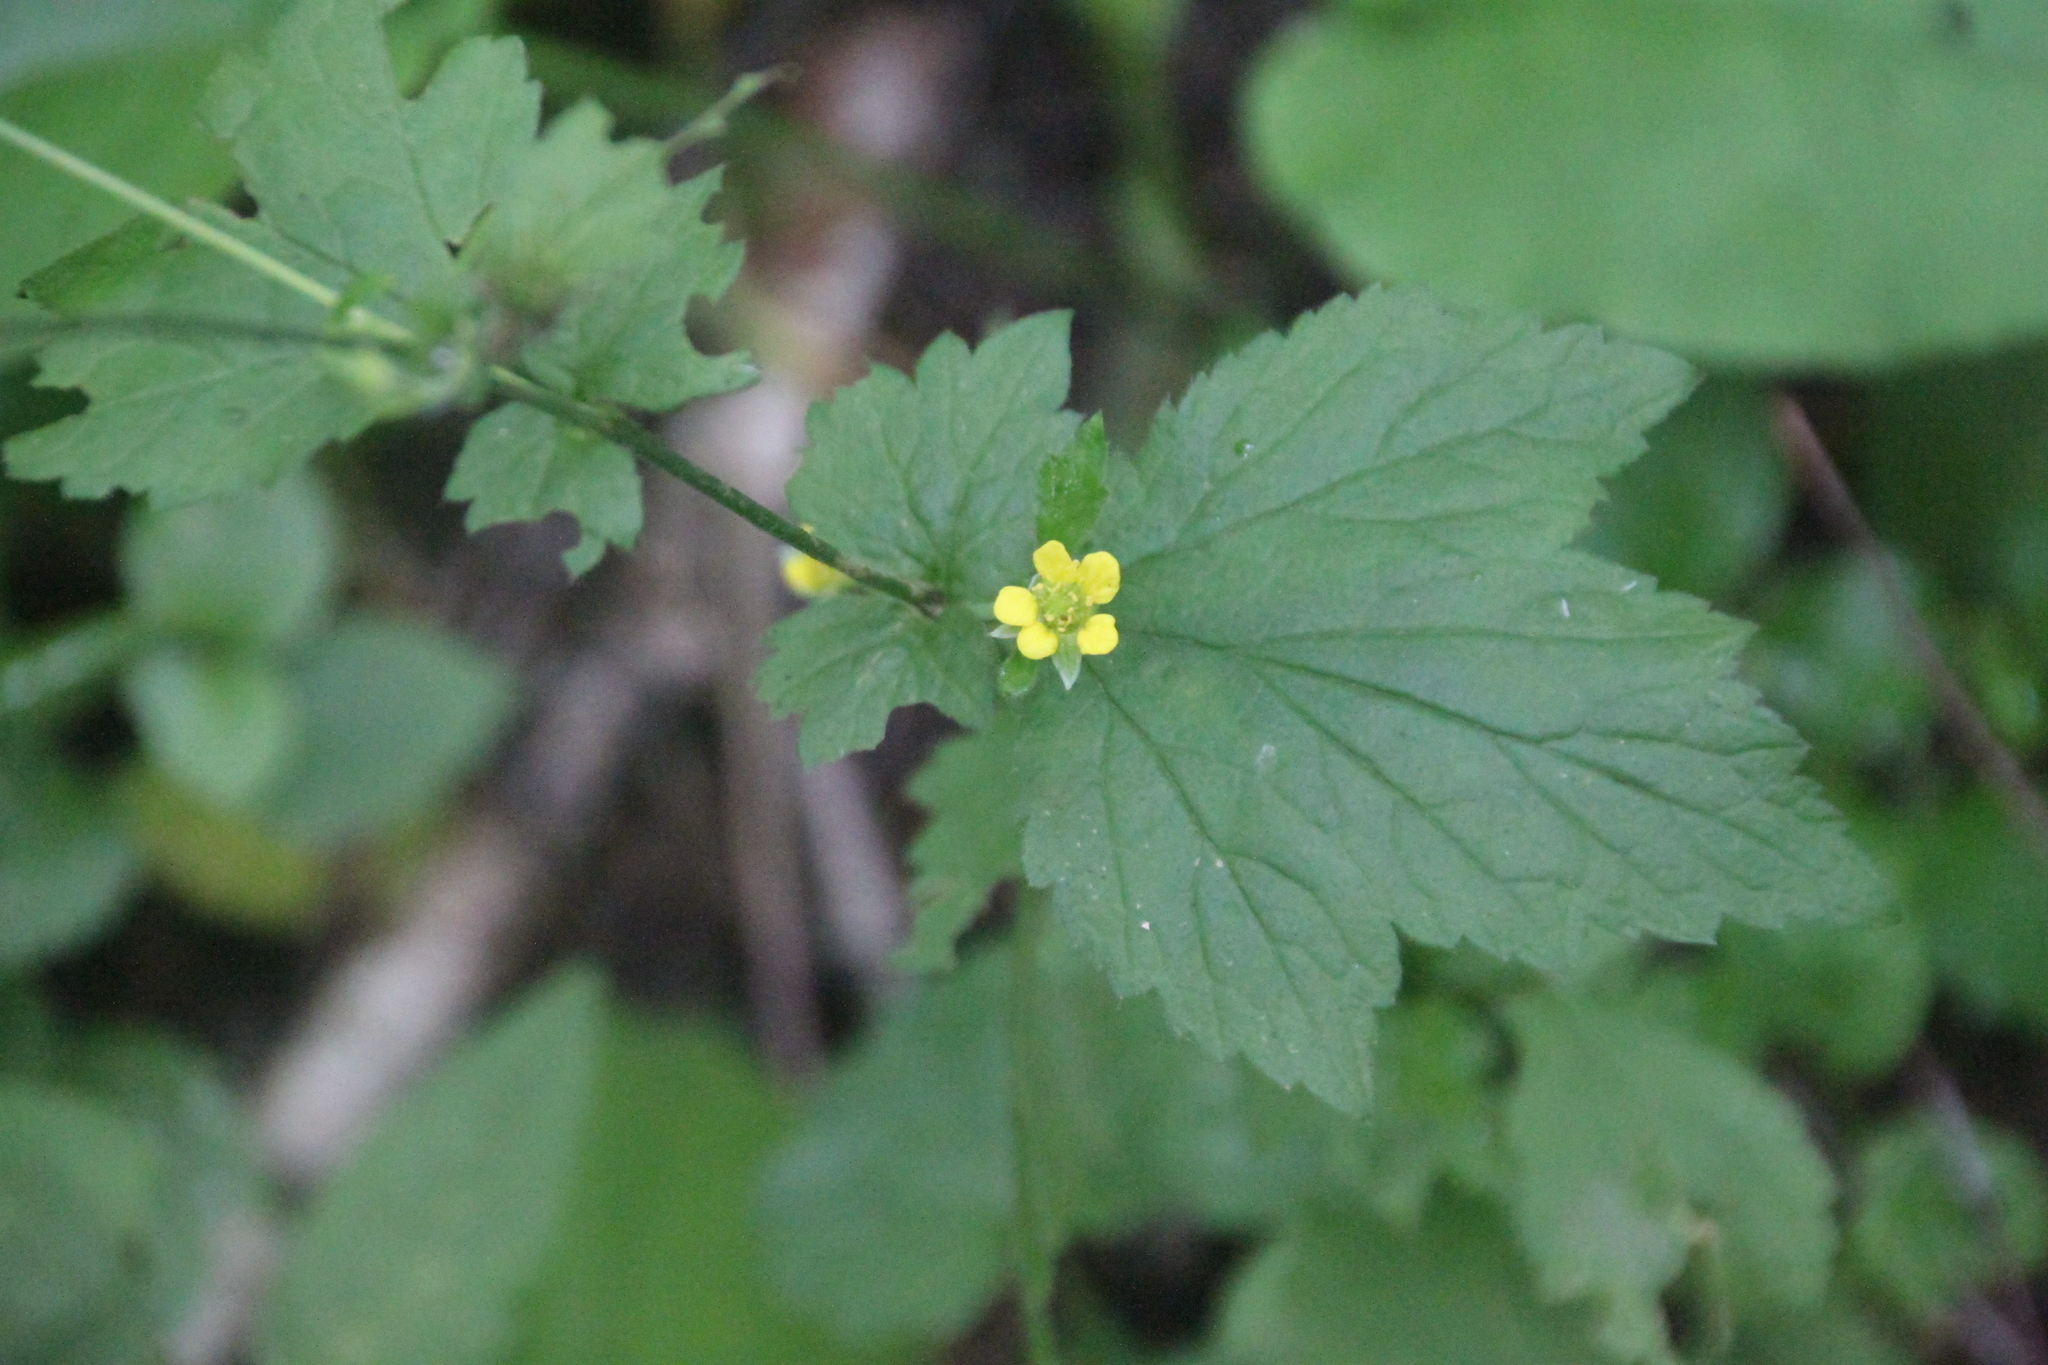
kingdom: Plantae
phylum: Tracheophyta
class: Magnoliopsida
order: Rosales
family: Rosaceae
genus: Geum
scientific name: Geum urbanum
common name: Wood avens
